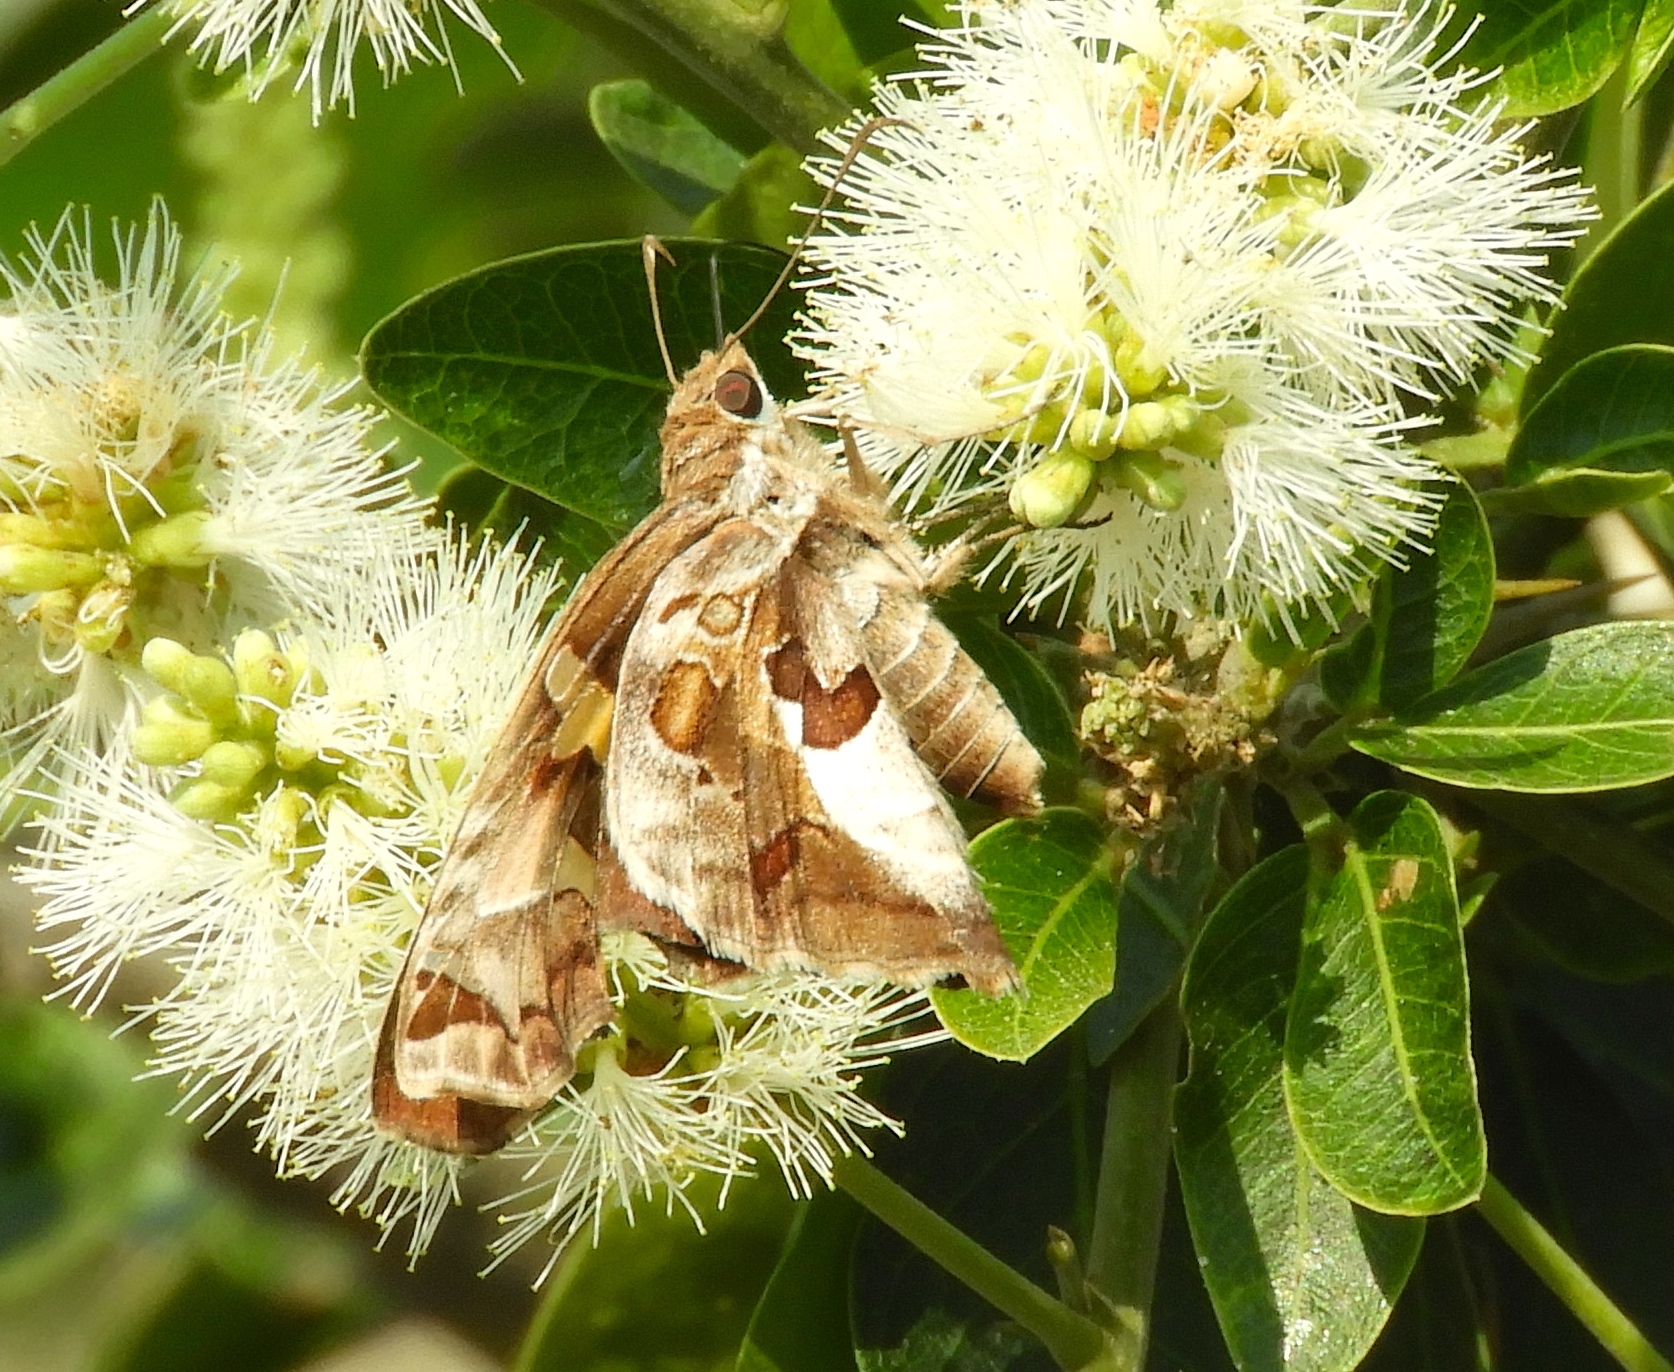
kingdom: Animalia
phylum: Arthropoda
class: Insecta
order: Lepidoptera
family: Hesperiidae
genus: Chioides
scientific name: Chioides zilpa
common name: Zilpa longtail
